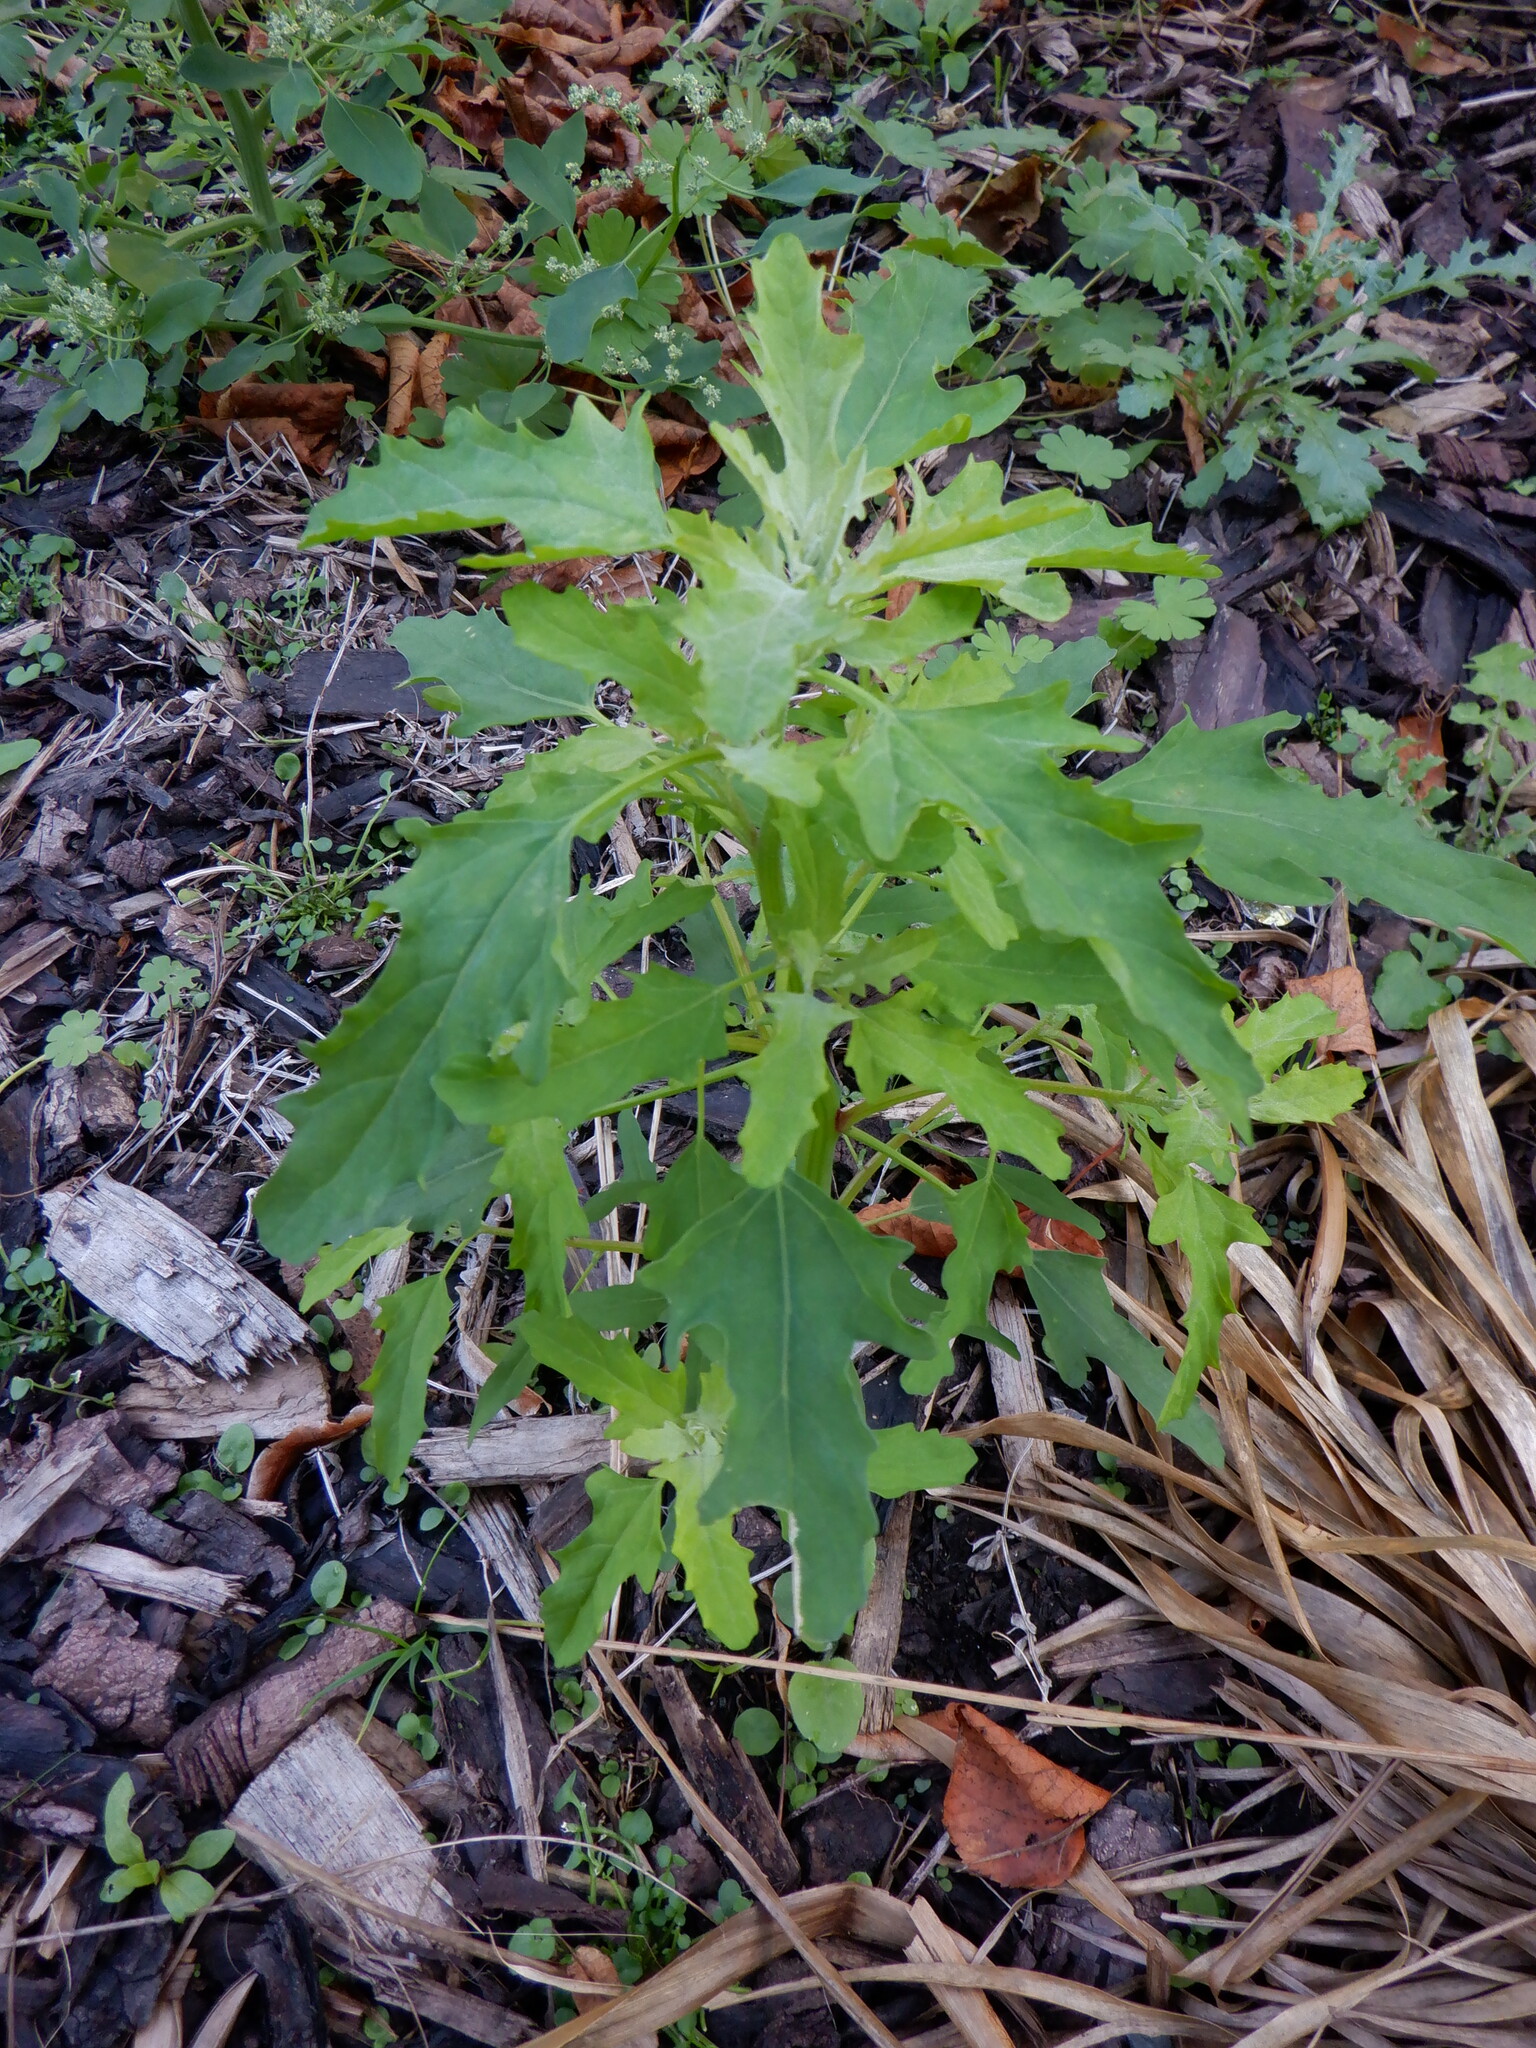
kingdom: Plantae
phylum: Tracheophyta
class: Magnoliopsida
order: Caryophyllales
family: Amaranthaceae
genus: Chenopodium
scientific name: Chenopodium album
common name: Fat-hen
